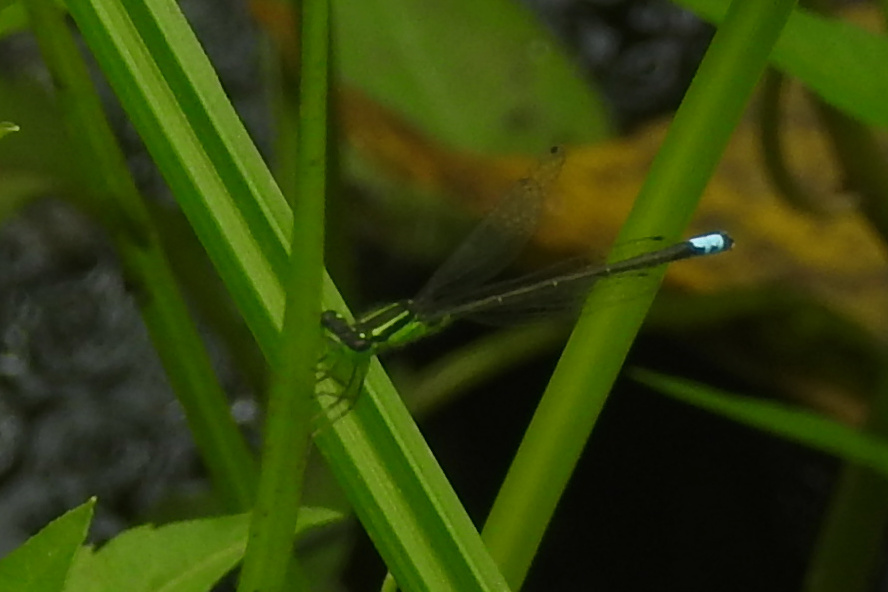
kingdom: Animalia
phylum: Arthropoda
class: Insecta
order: Odonata
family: Coenagrionidae
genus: Ischnura
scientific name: Ischnura verticalis
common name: Eastern forktail
